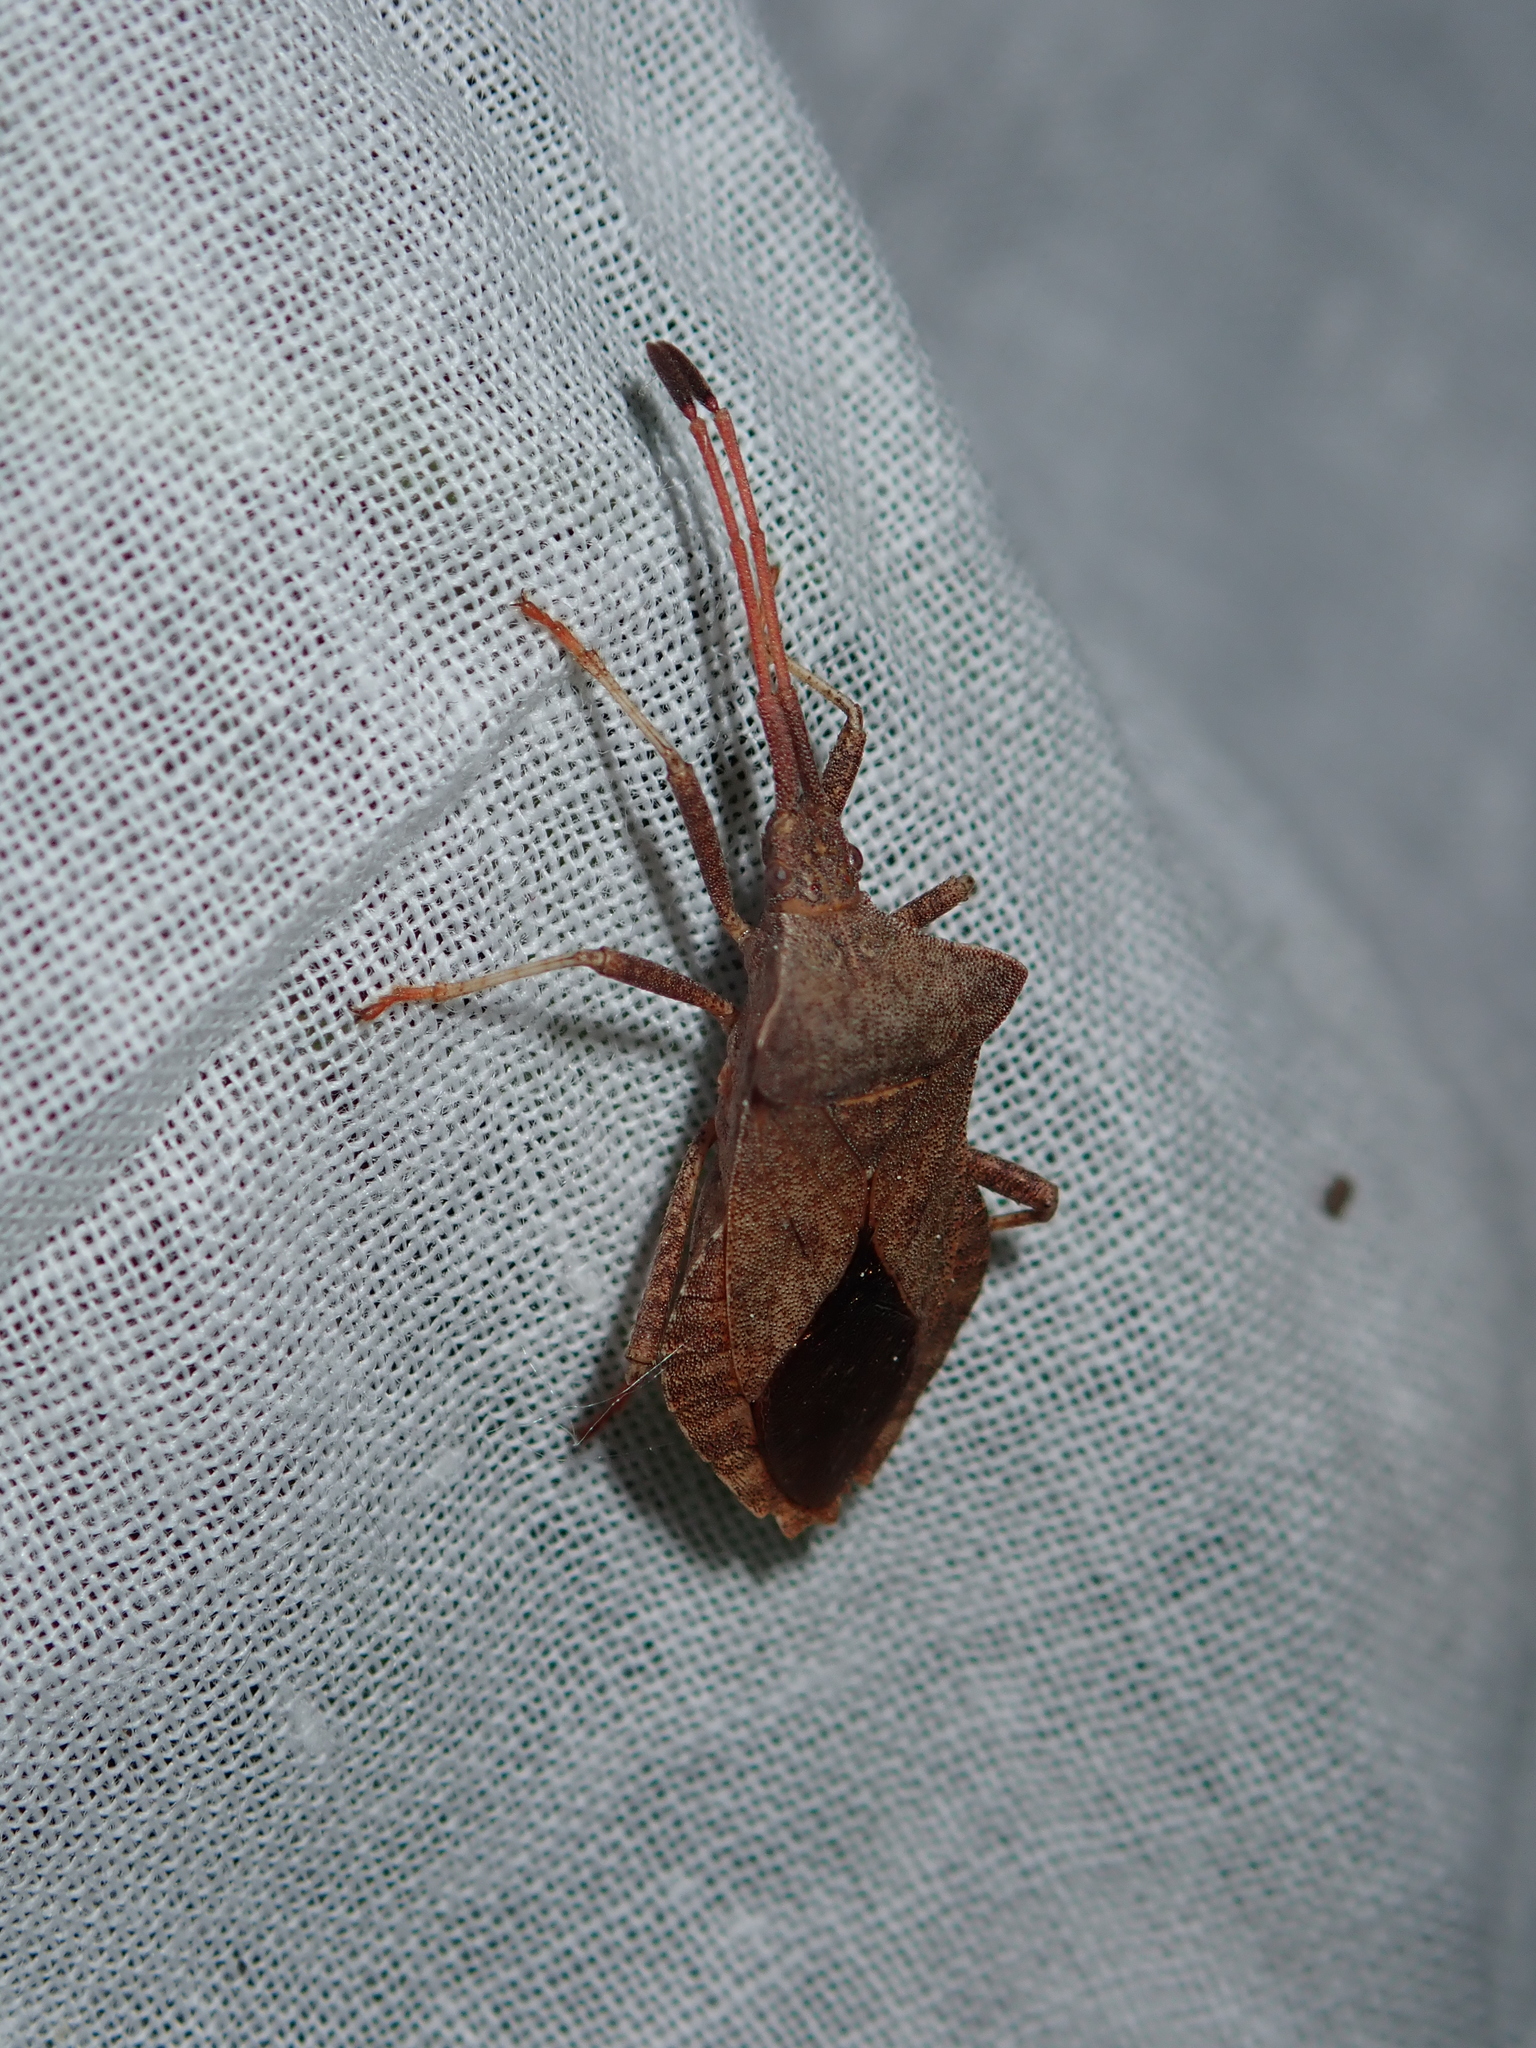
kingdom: Animalia
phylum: Arthropoda
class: Insecta
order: Hemiptera
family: Coreidae
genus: Coreus
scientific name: Coreus marginatus
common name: Dock bug
